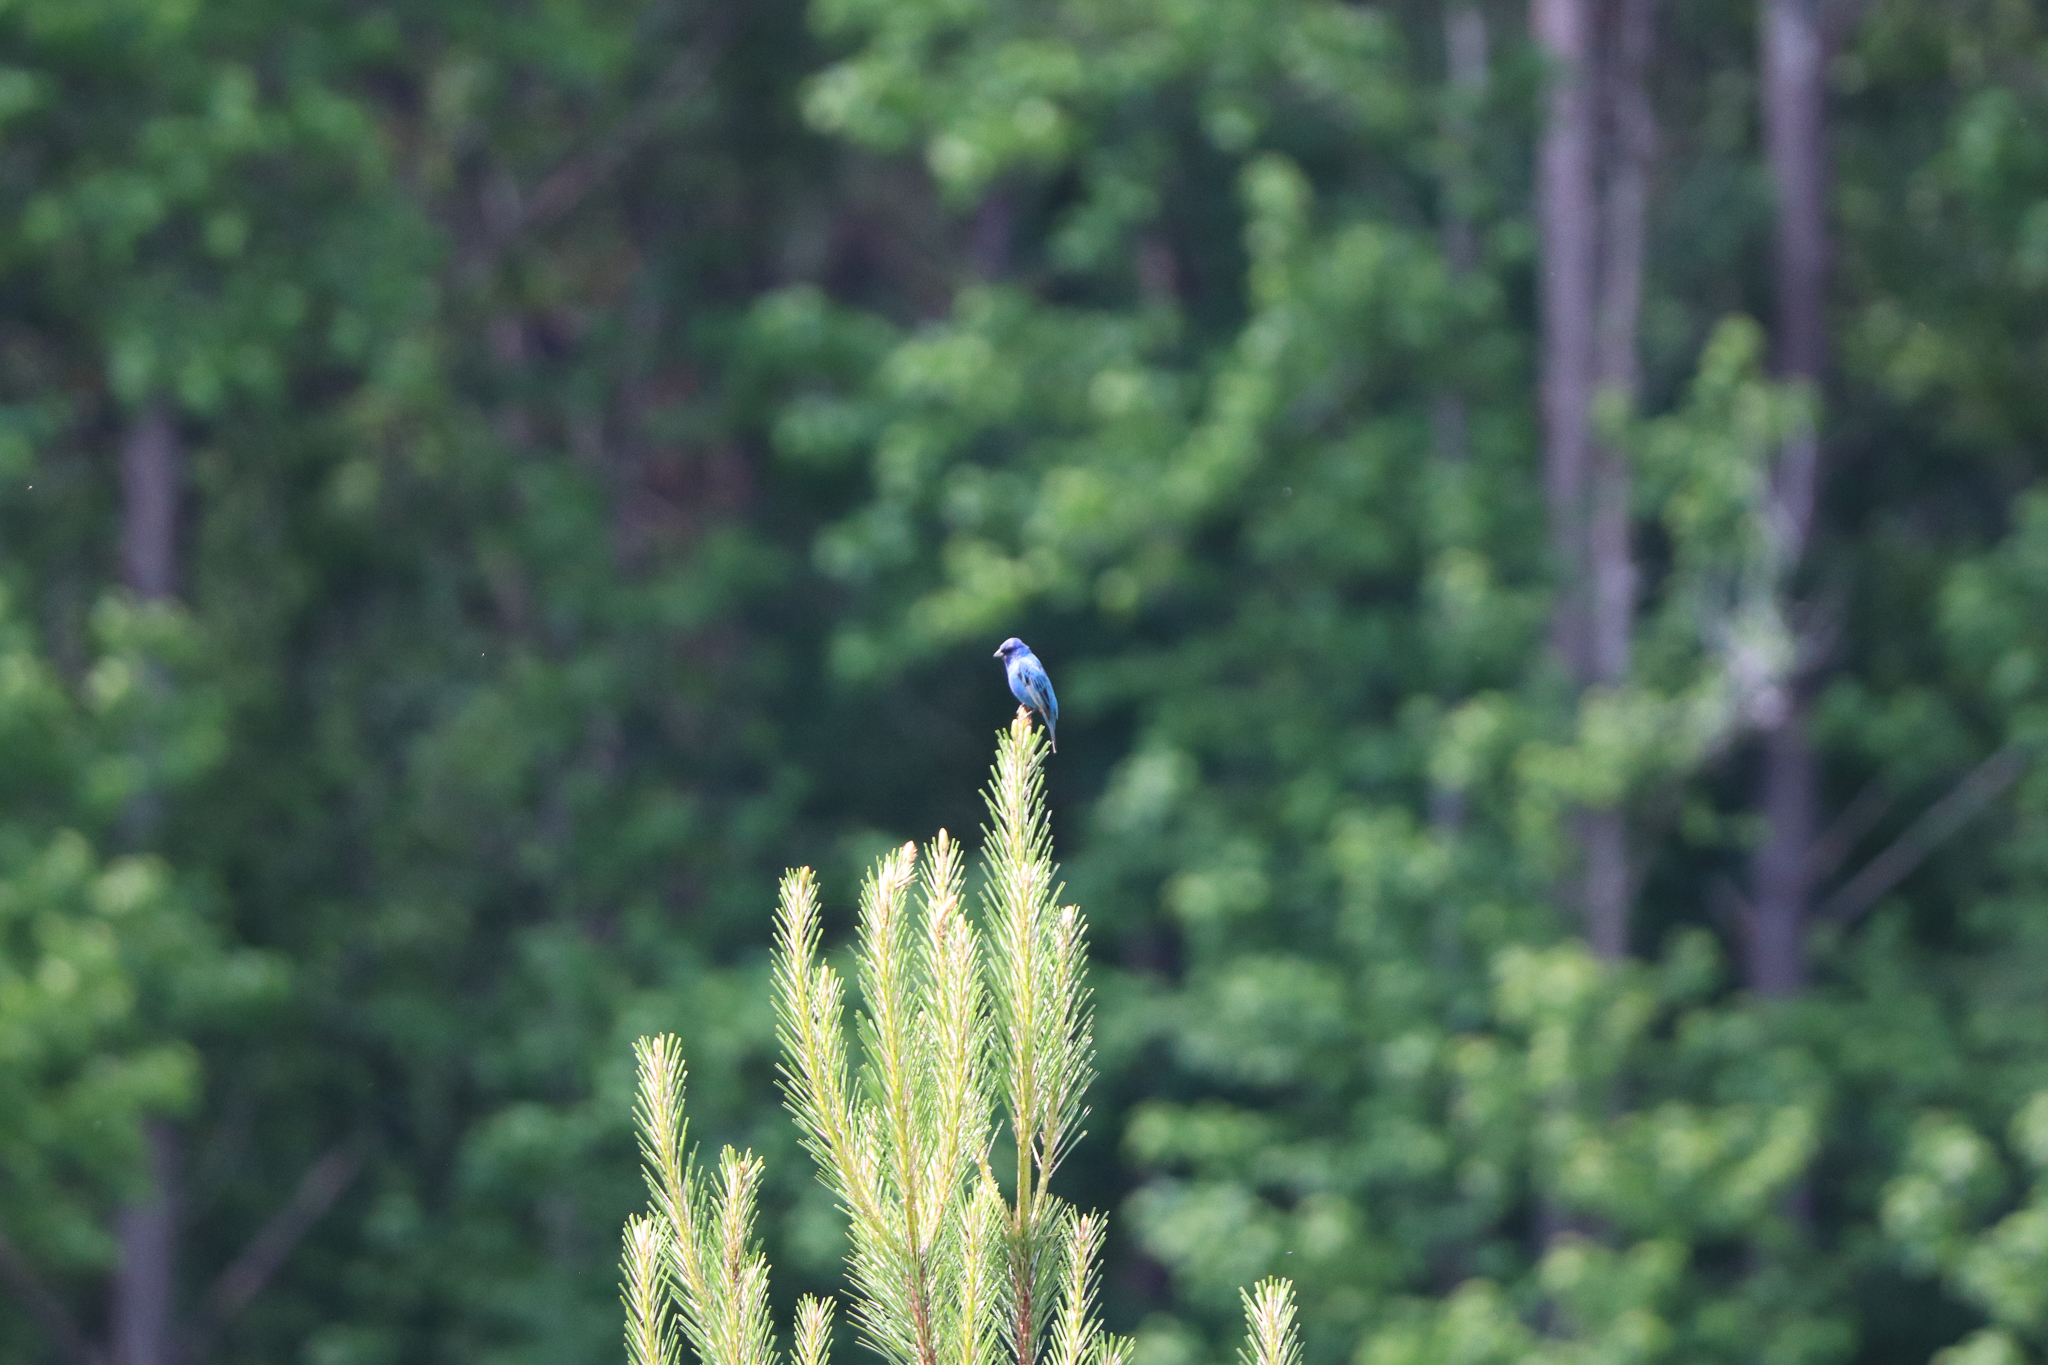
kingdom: Animalia
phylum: Chordata
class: Aves
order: Passeriformes
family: Cardinalidae
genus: Passerina
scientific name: Passerina cyanea
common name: Indigo bunting
